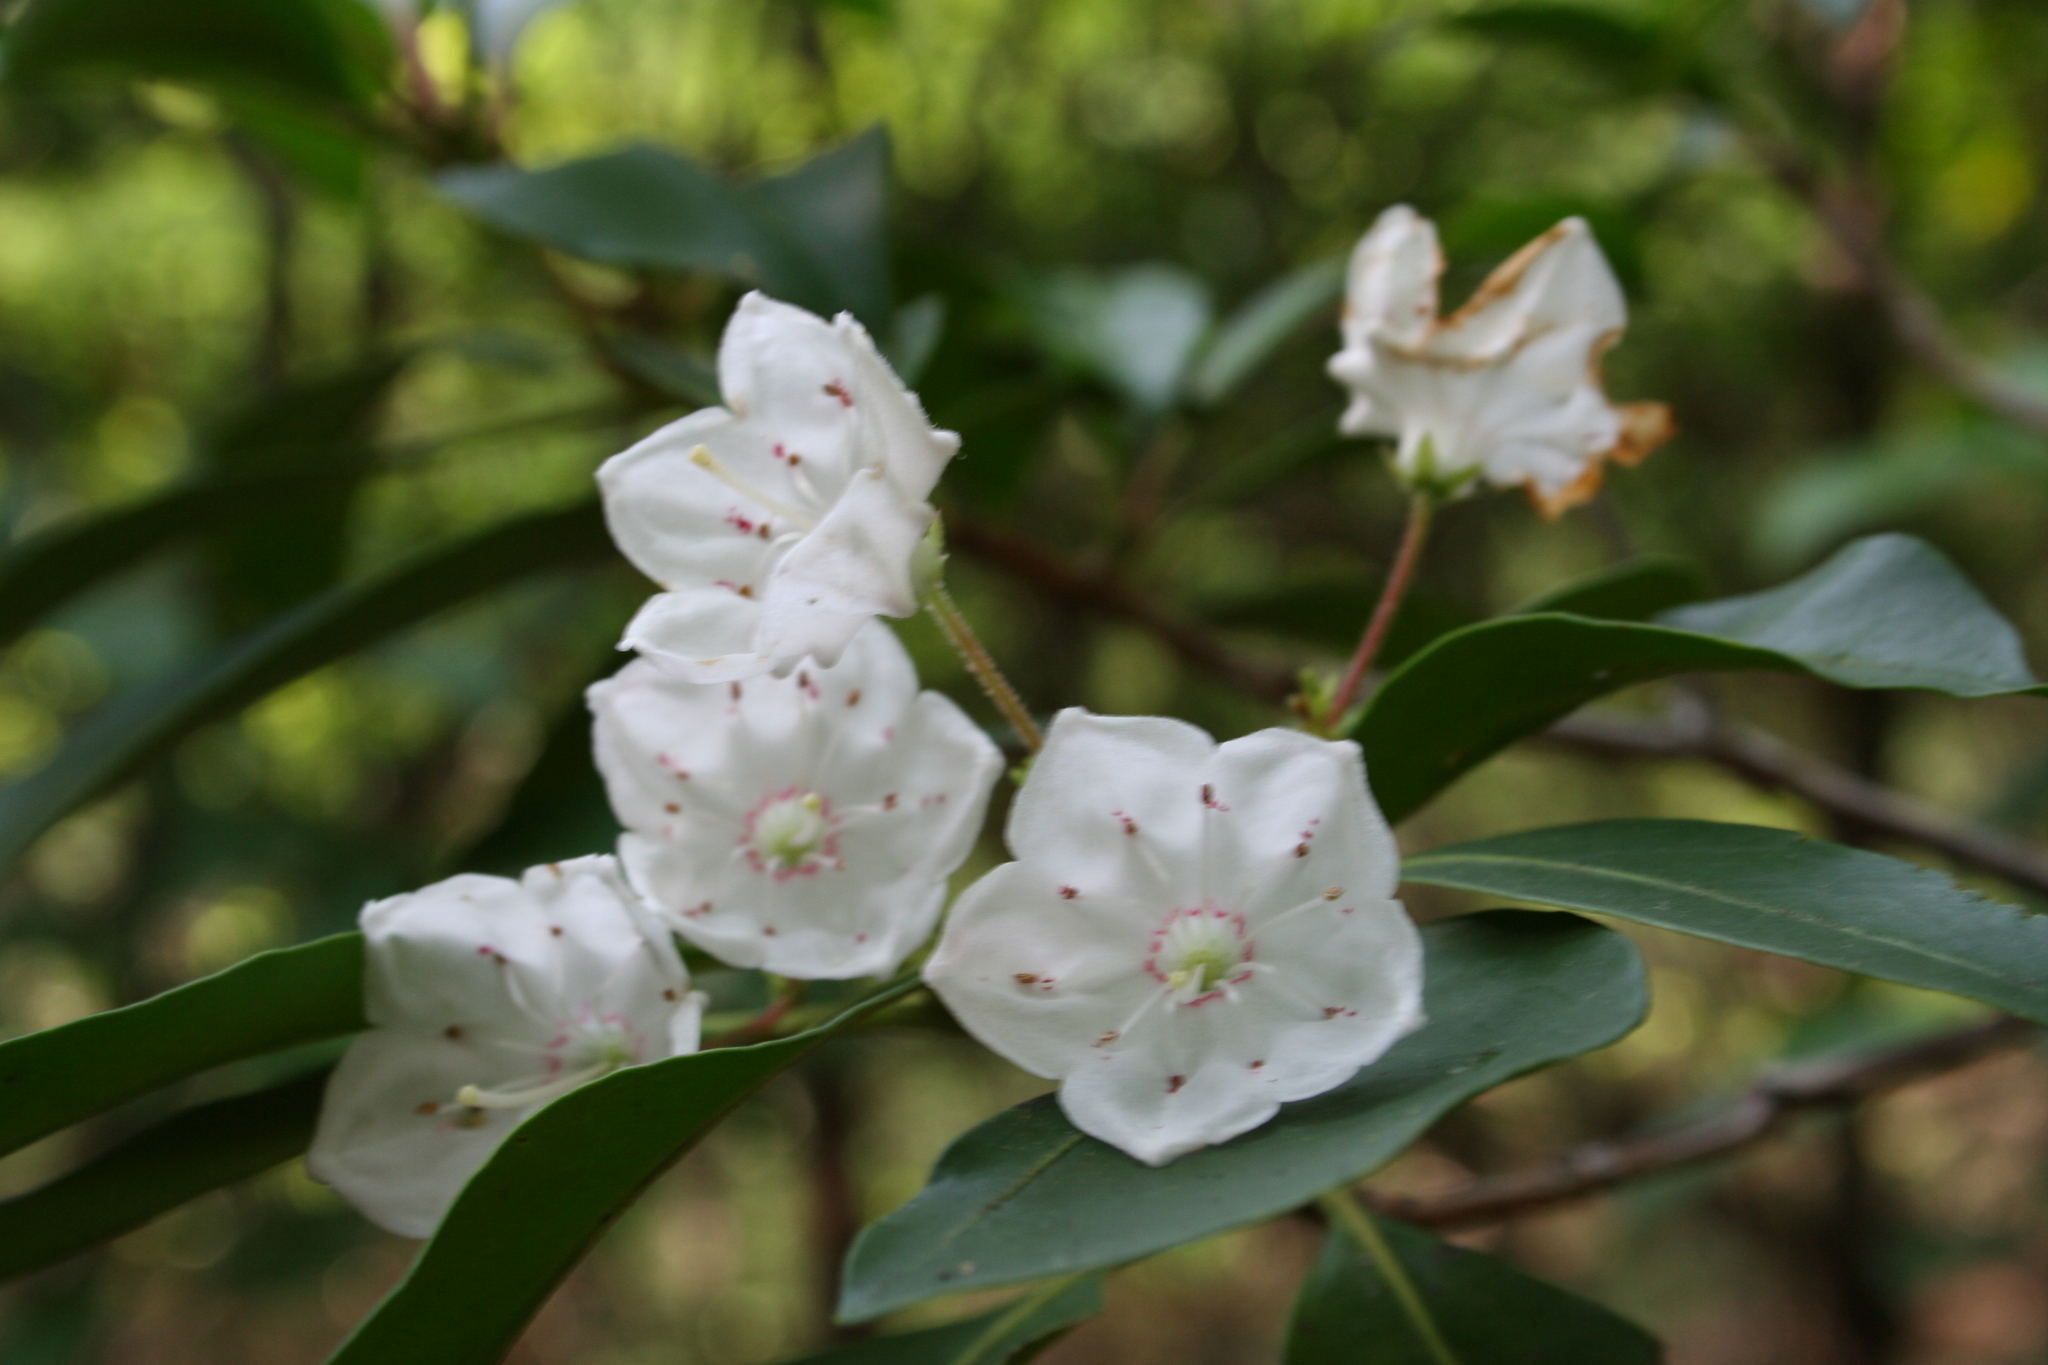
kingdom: Plantae
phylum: Tracheophyta
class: Magnoliopsida
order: Ericales
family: Ericaceae
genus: Kalmia
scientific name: Kalmia latifolia
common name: Mountain-laurel
